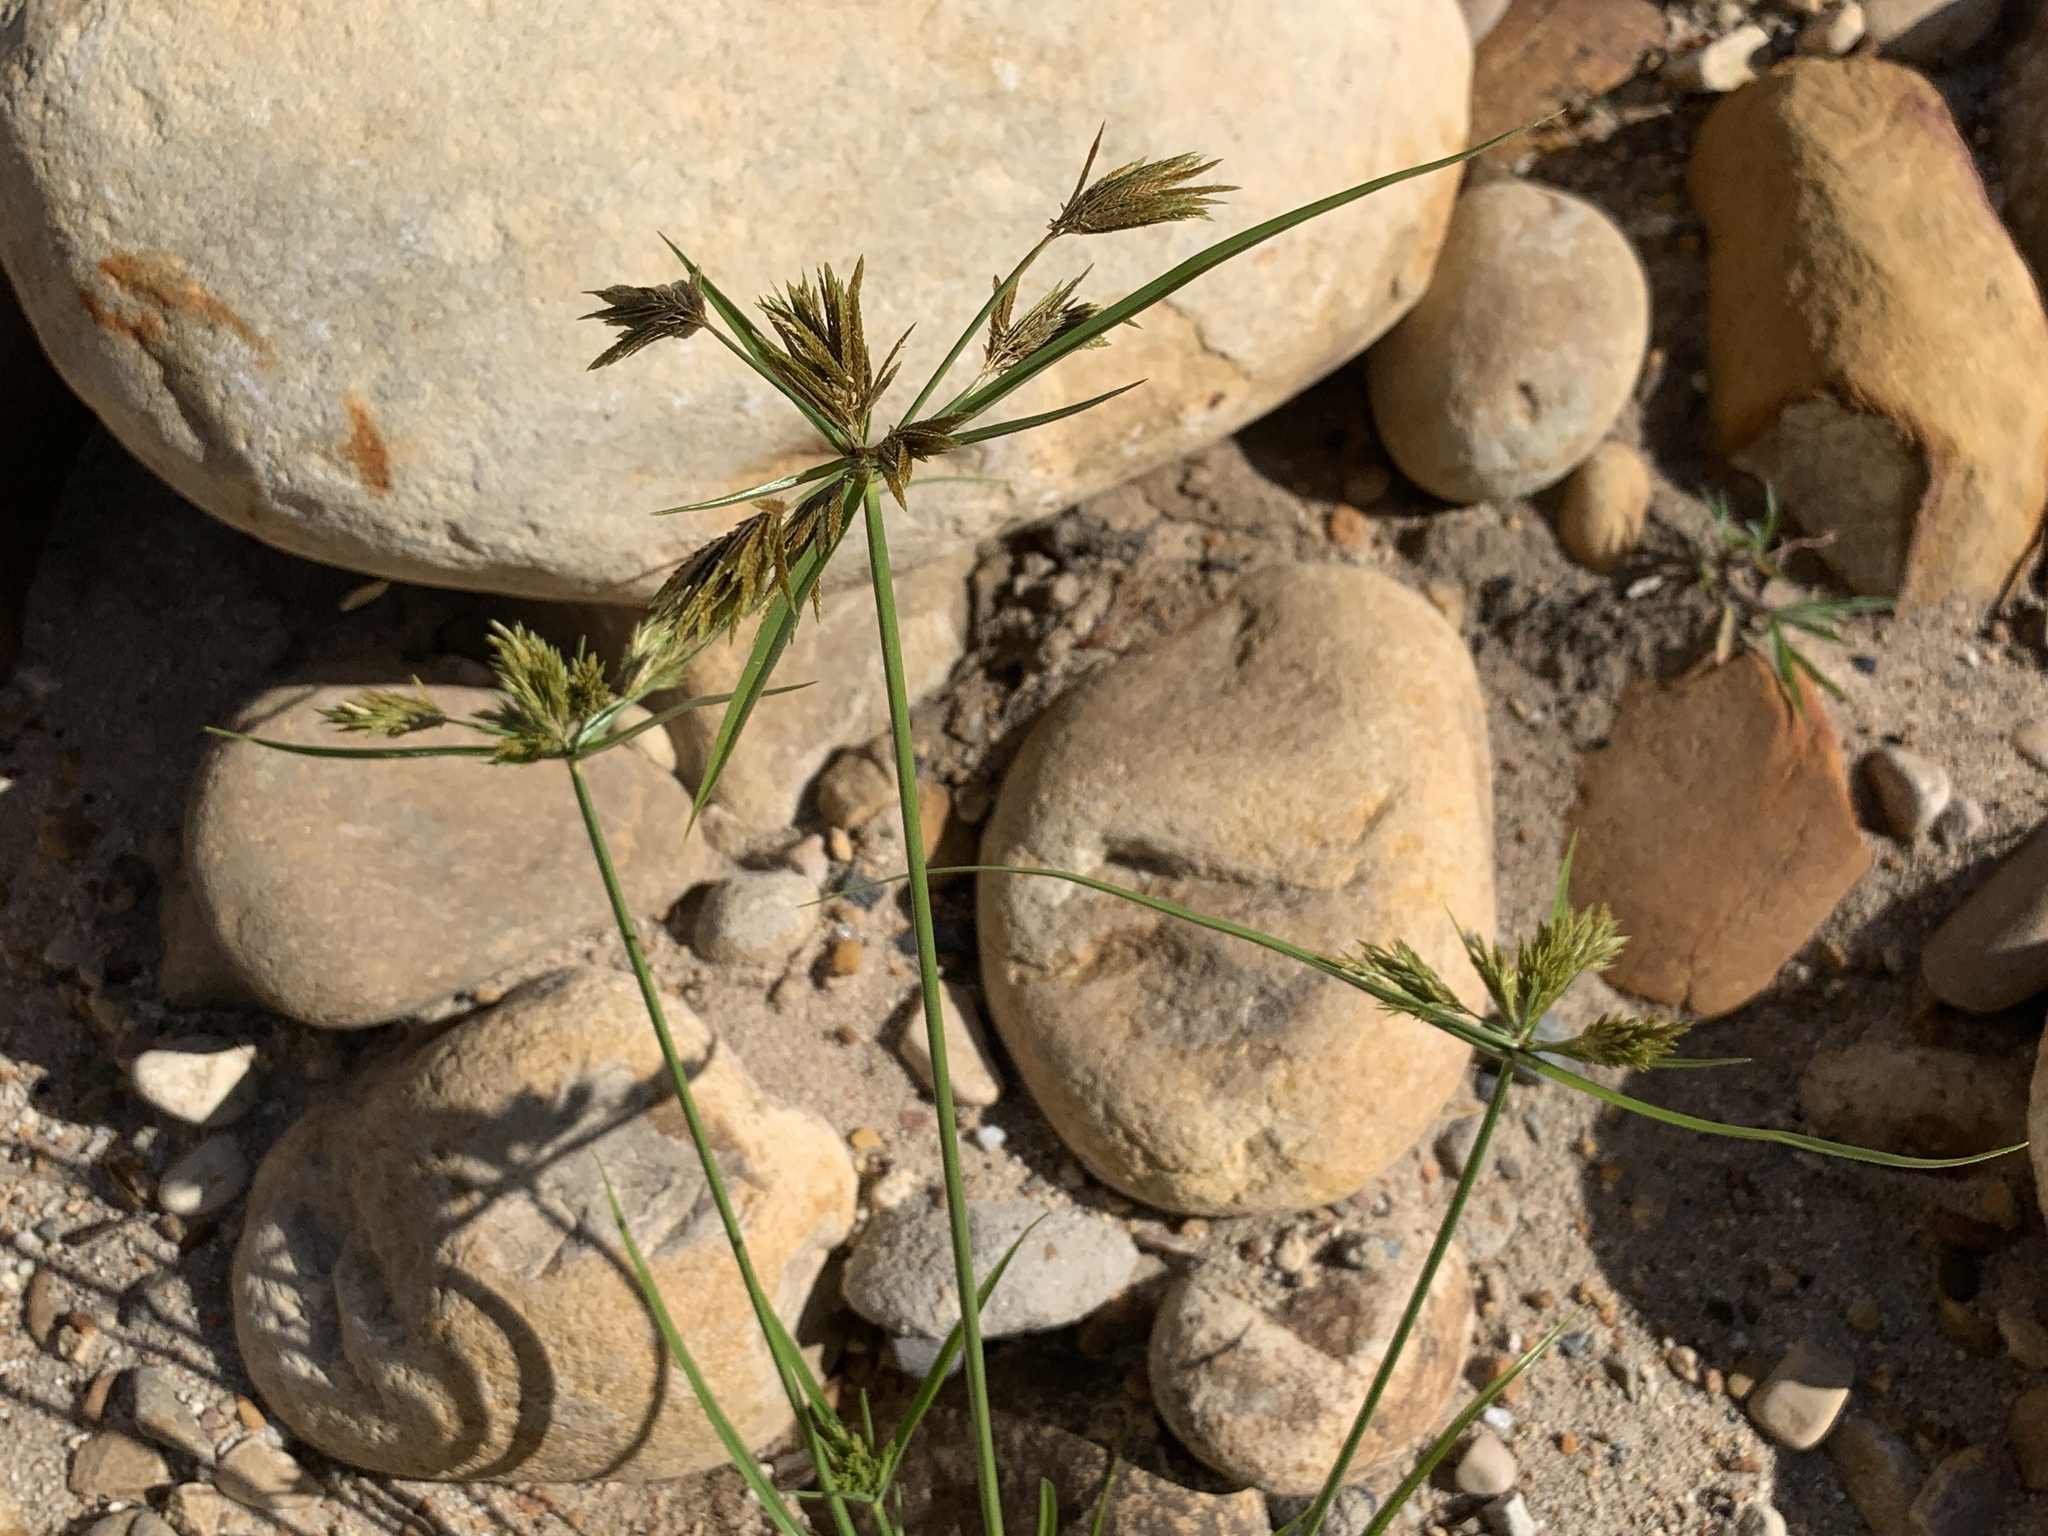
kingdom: Plantae
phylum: Tracheophyta
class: Liliopsida
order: Poales
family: Cyperaceae
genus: Cyperus
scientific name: Cyperus polystachyos
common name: Bunchy flat sedge
